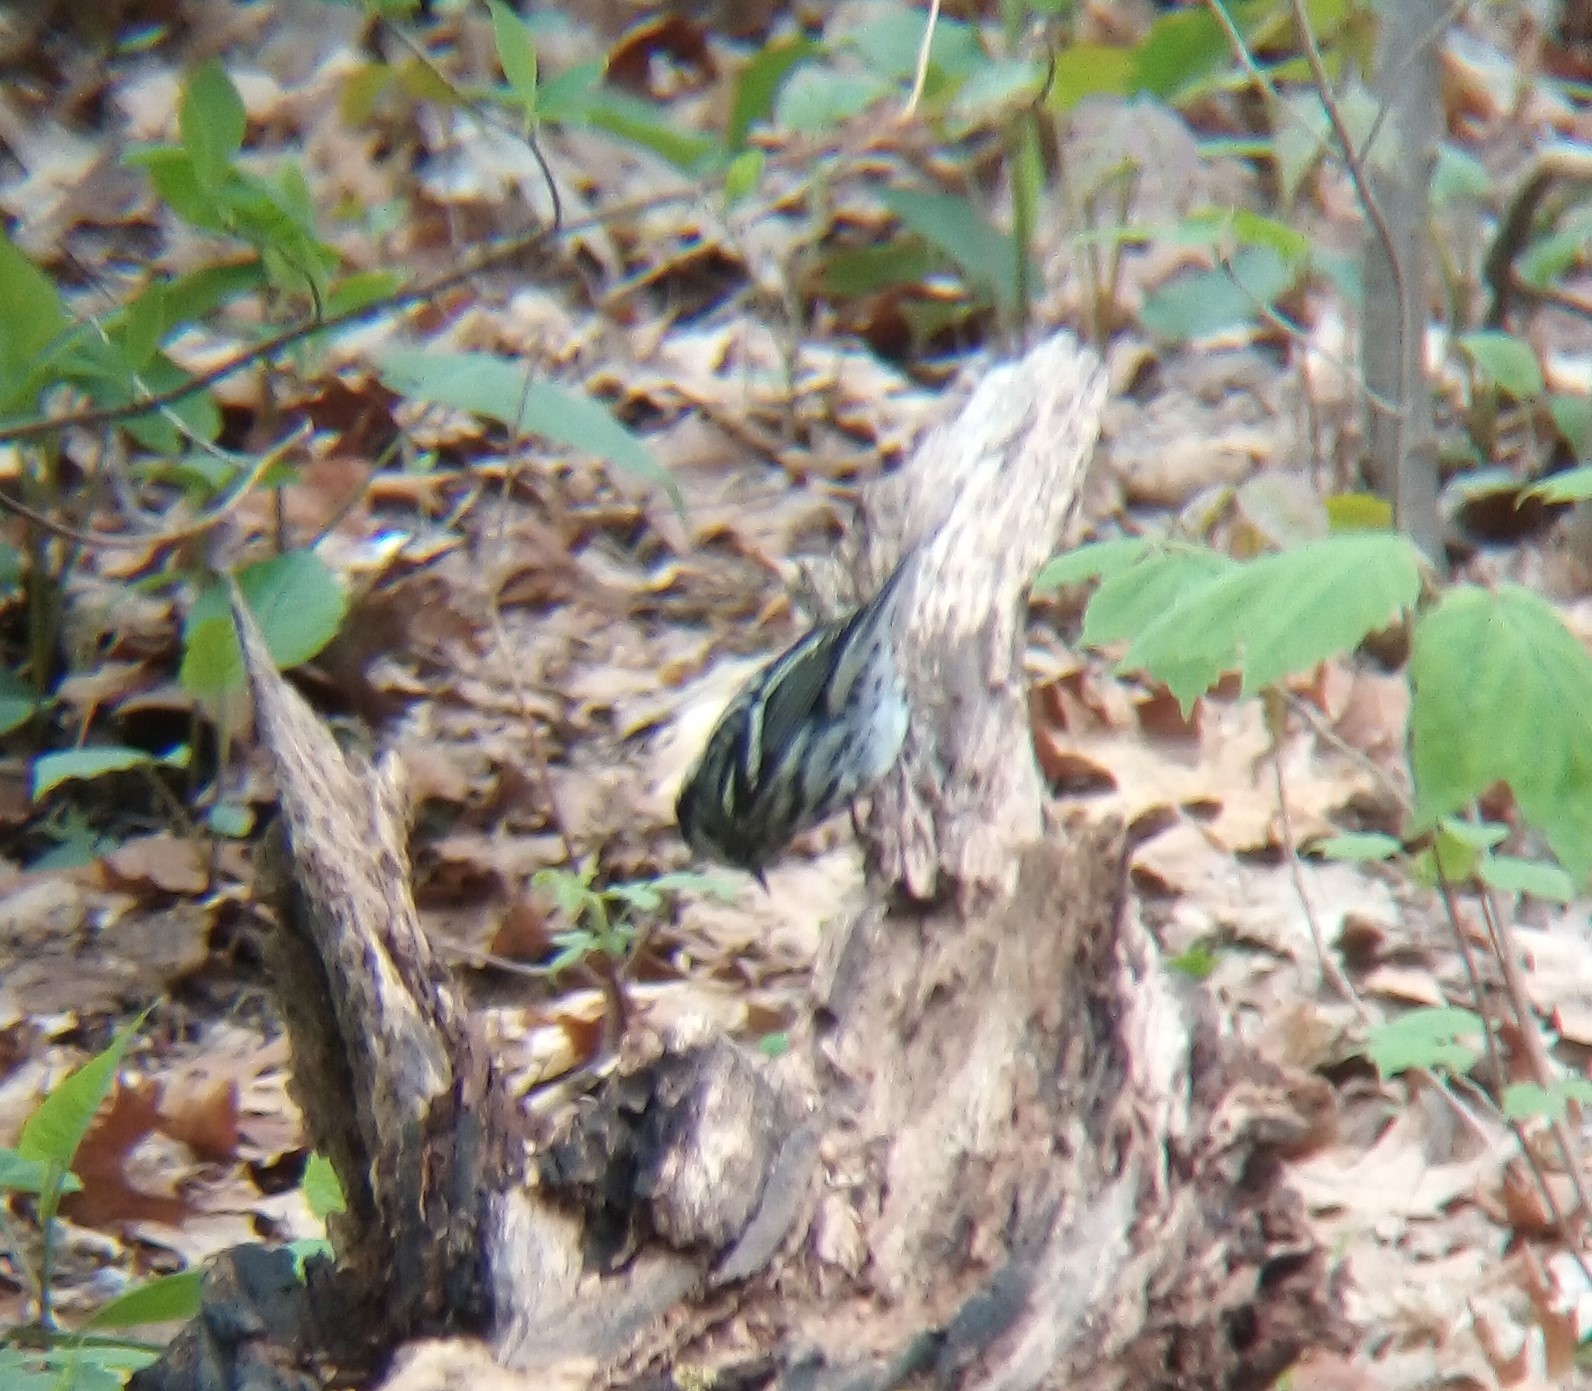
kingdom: Animalia
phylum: Chordata
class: Aves
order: Passeriformes
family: Parulidae
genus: Mniotilta
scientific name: Mniotilta varia
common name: Black-and-white warbler
